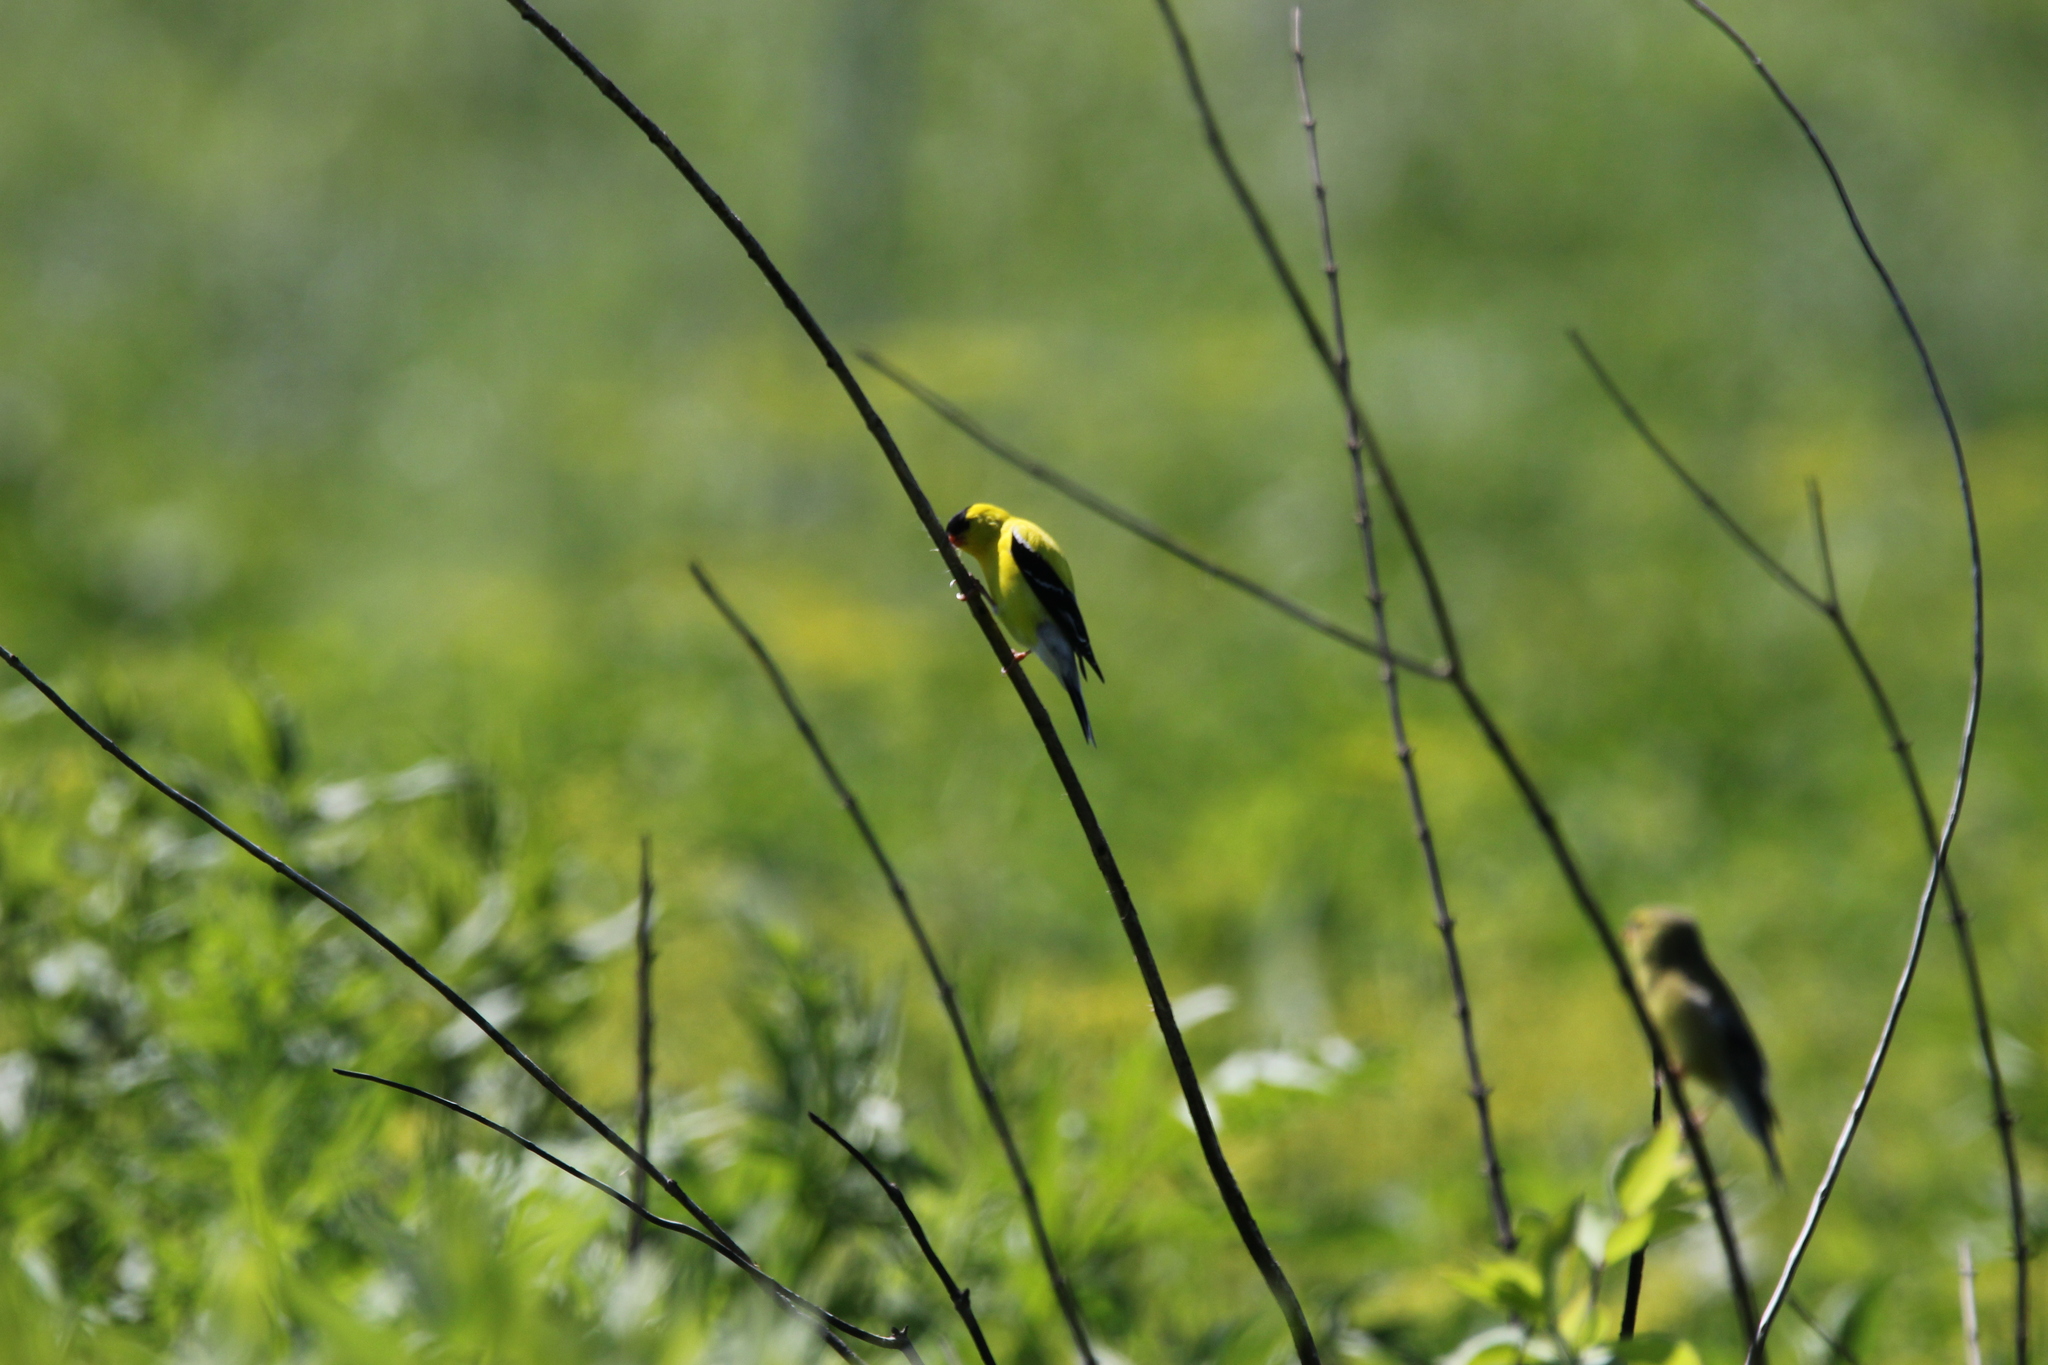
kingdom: Animalia
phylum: Chordata
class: Aves
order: Passeriformes
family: Fringillidae
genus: Spinus
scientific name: Spinus tristis
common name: American goldfinch
